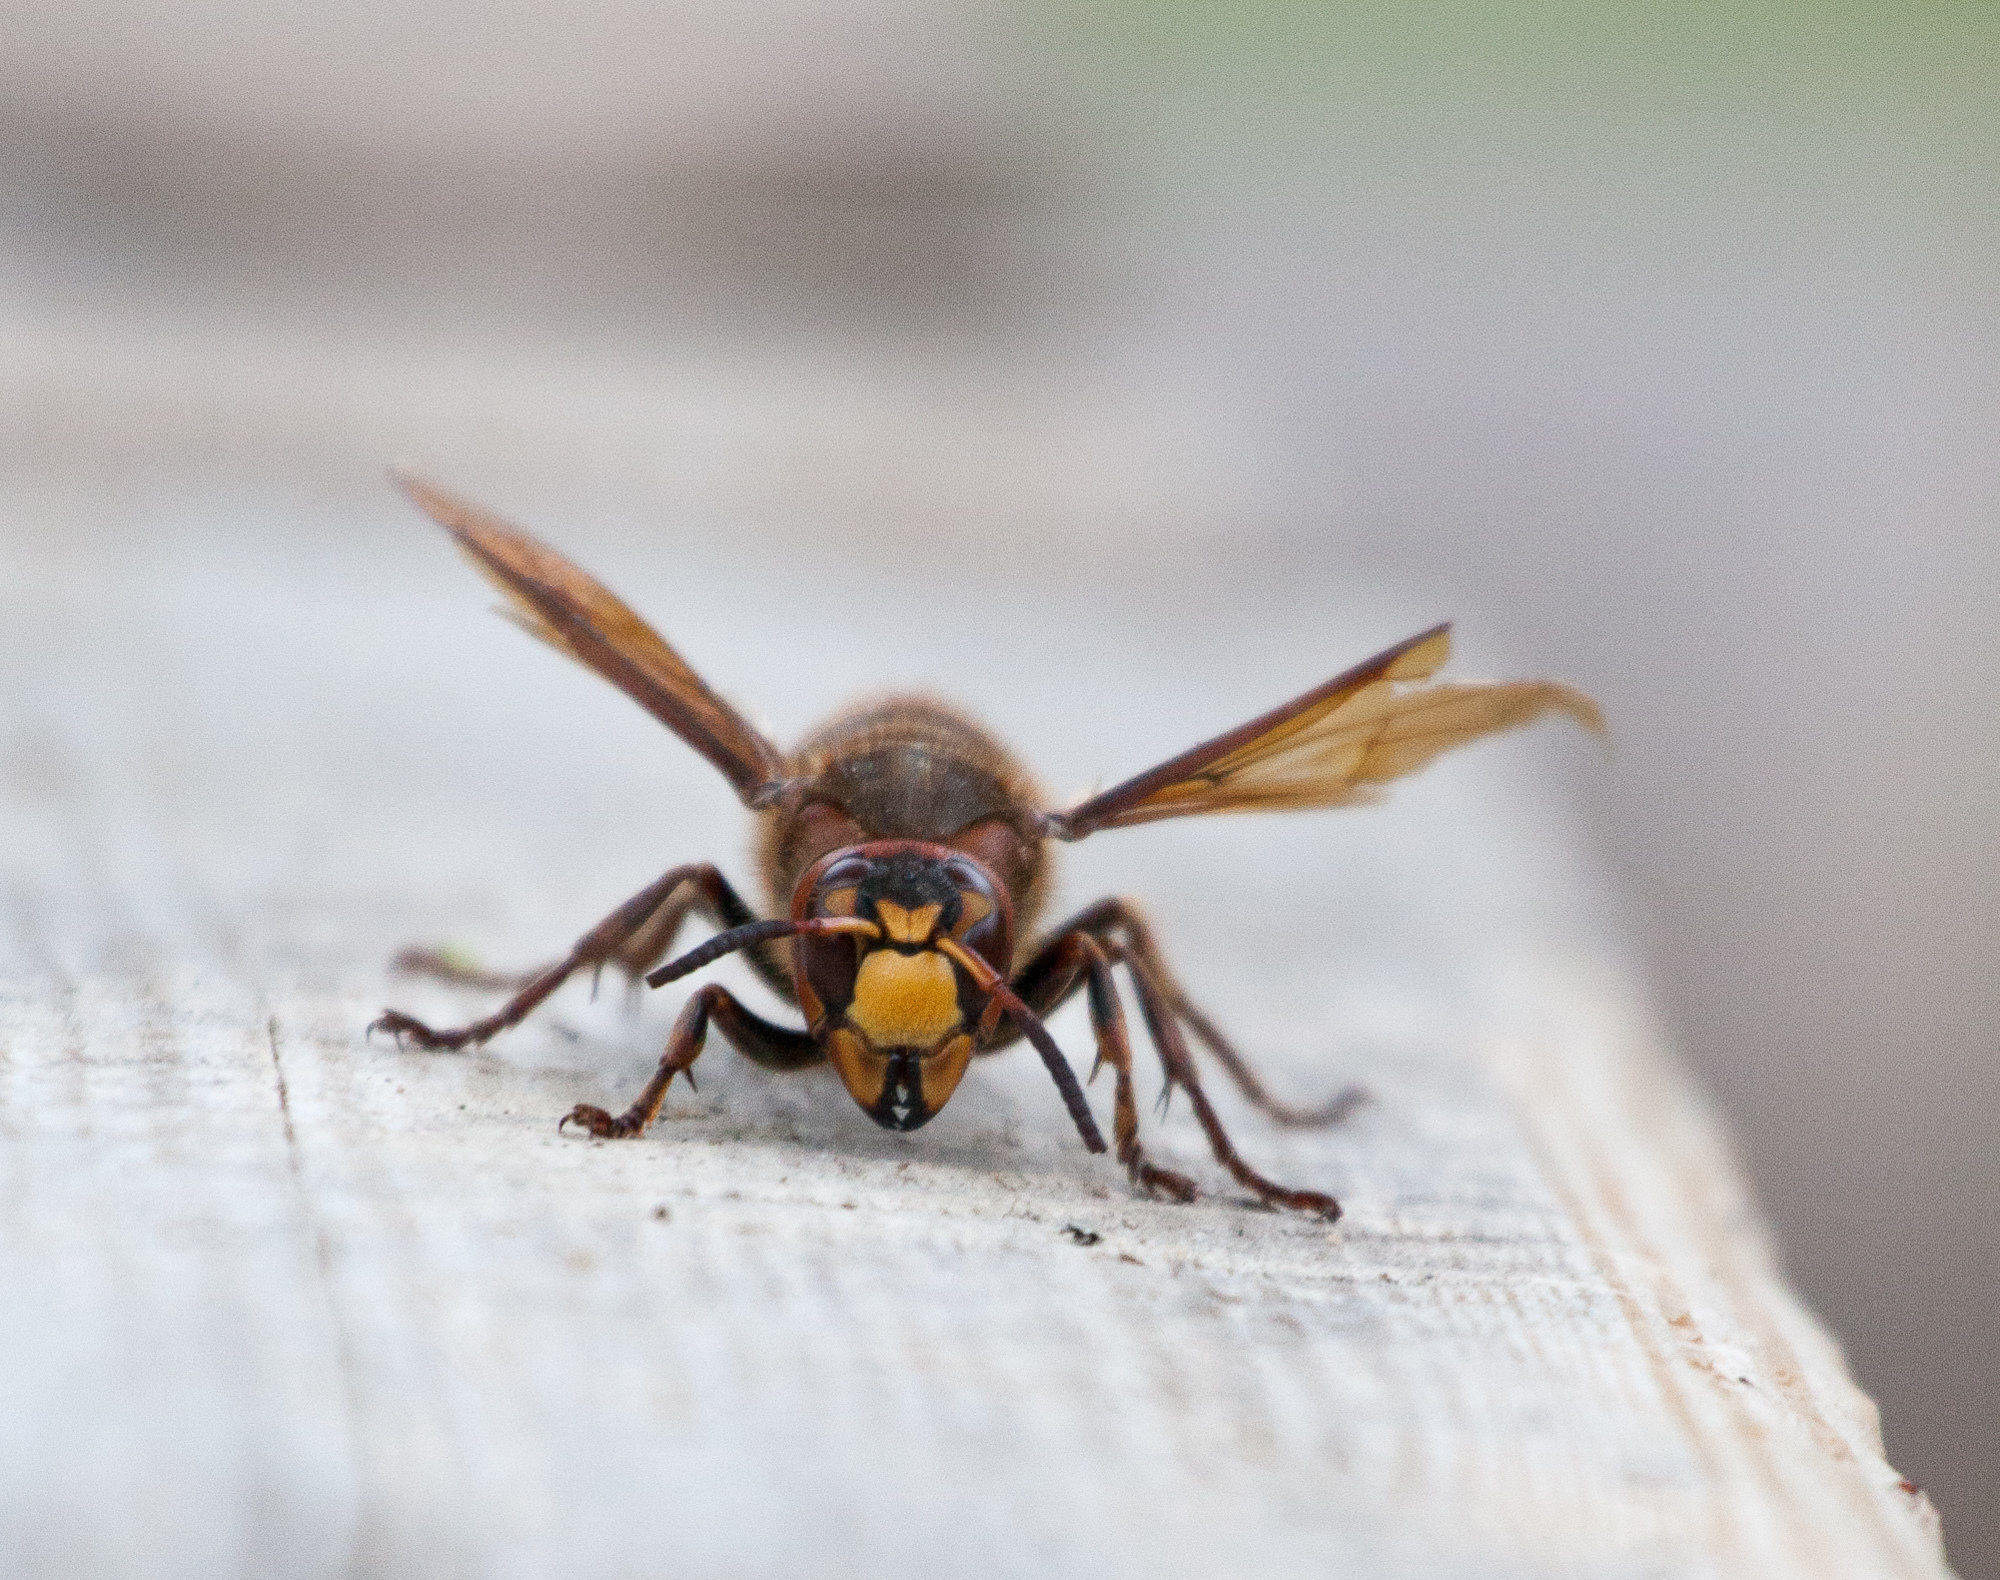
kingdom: Animalia
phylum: Arthropoda
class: Insecta
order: Hymenoptera
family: Vespidae
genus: Vespa
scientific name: Vespa crabro
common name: Hornet
